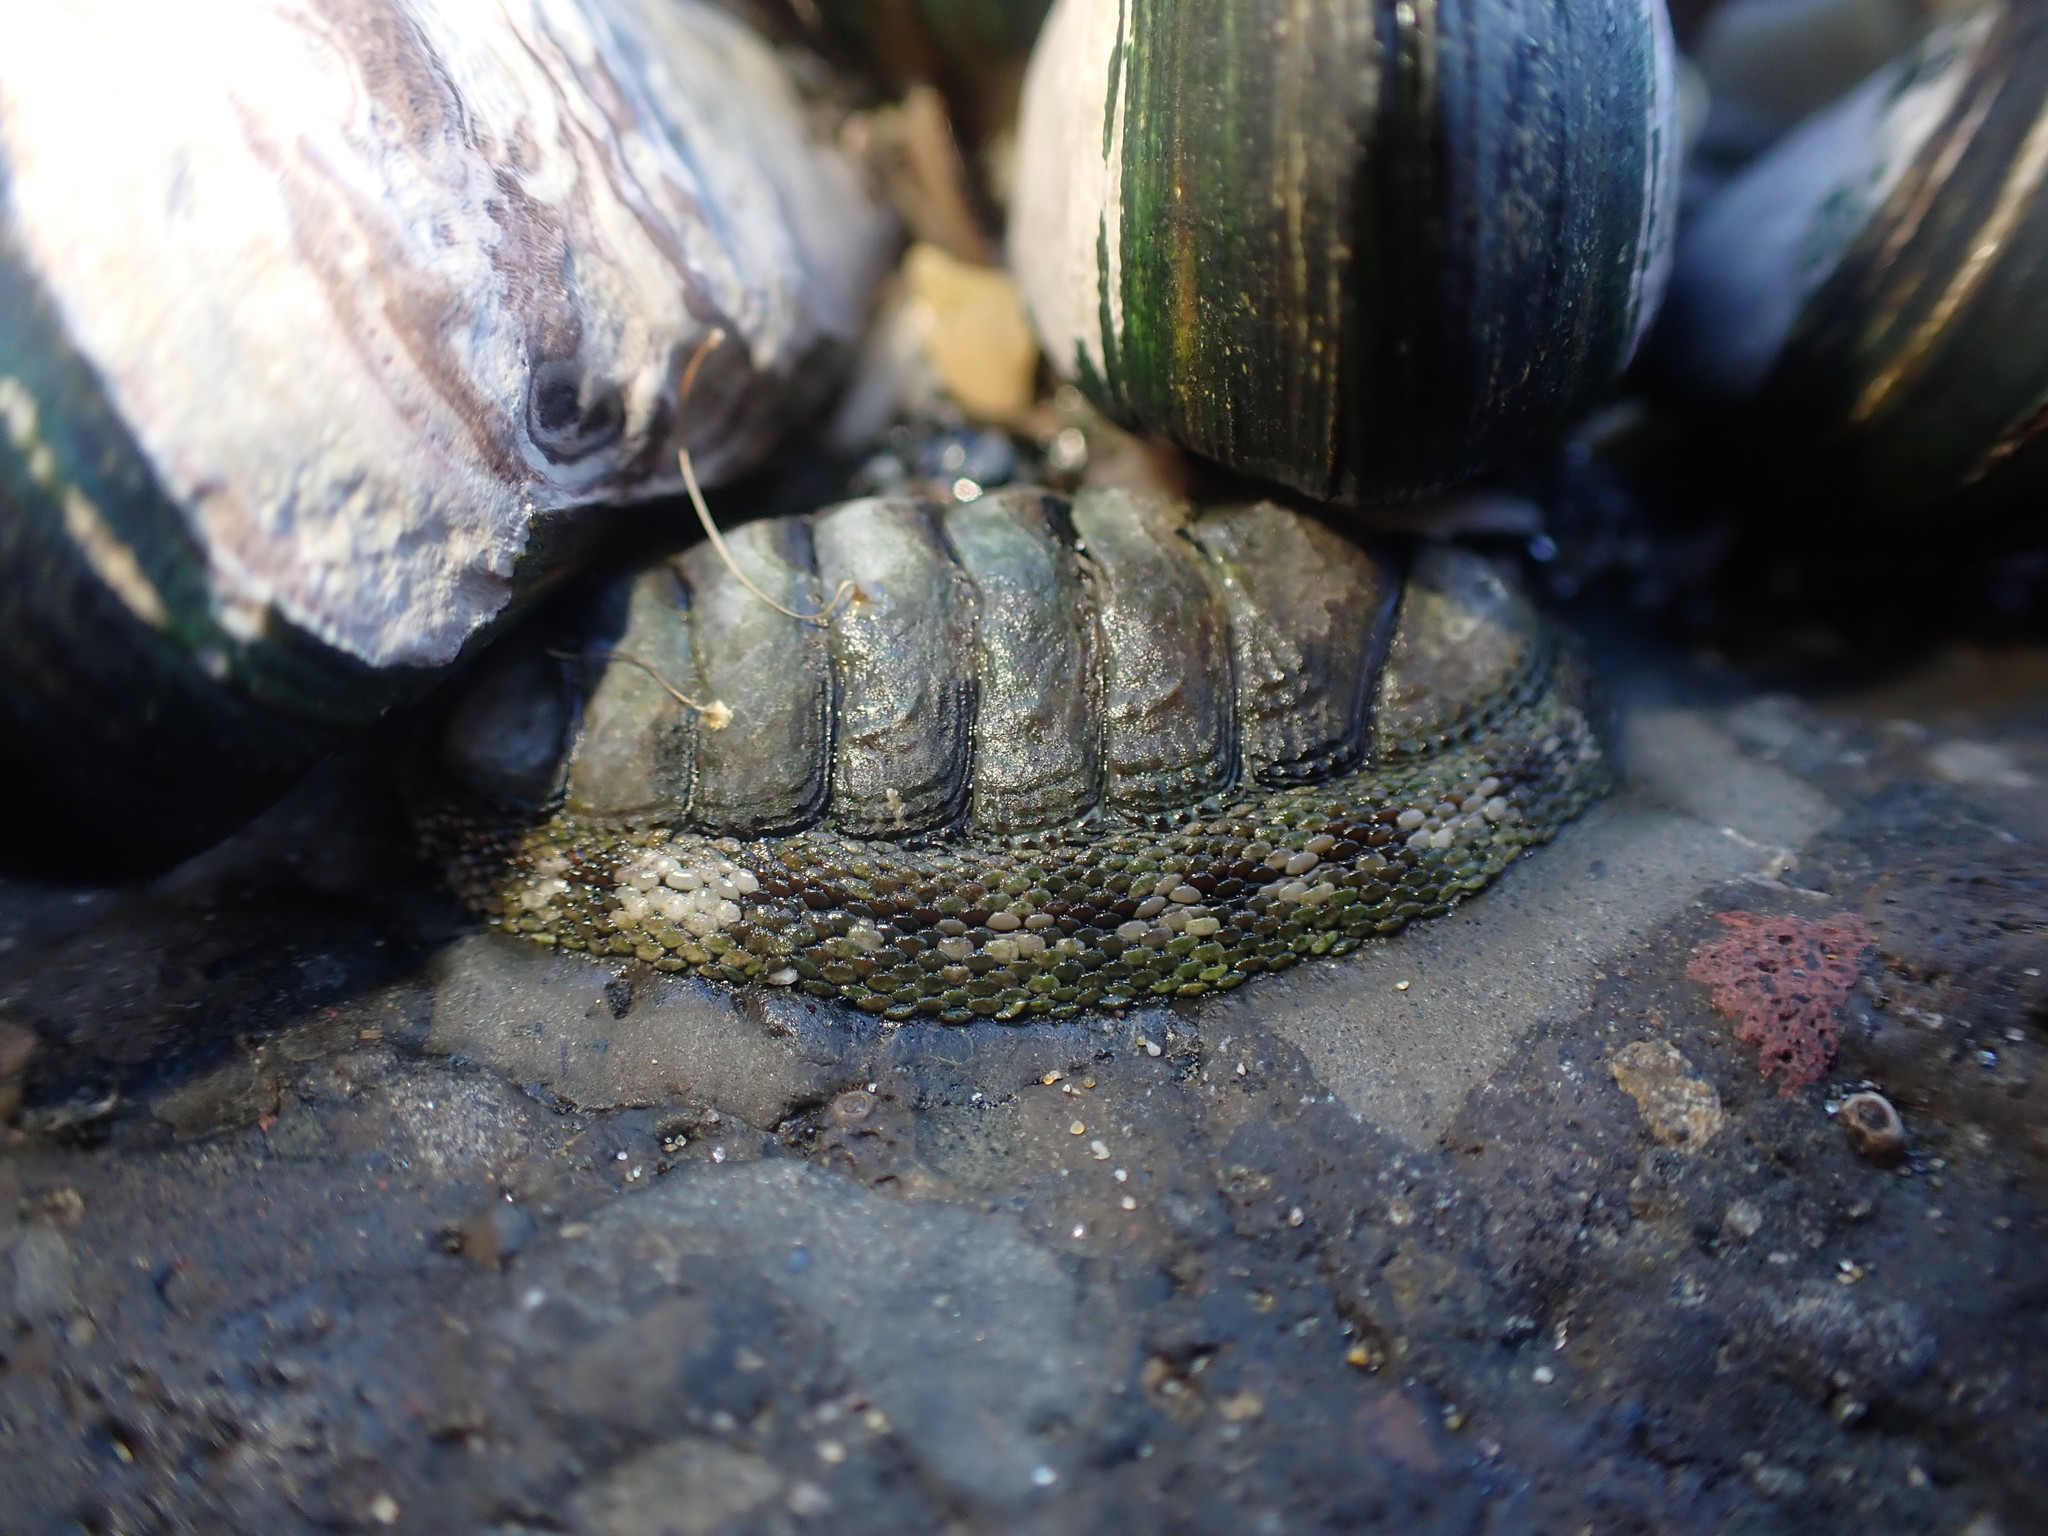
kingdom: Animalia
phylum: Mollusca
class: Polyplacophora
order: Chitonida
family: Chitonidae
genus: Sypharochiton
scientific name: Sypharochiton pelliserpentis
